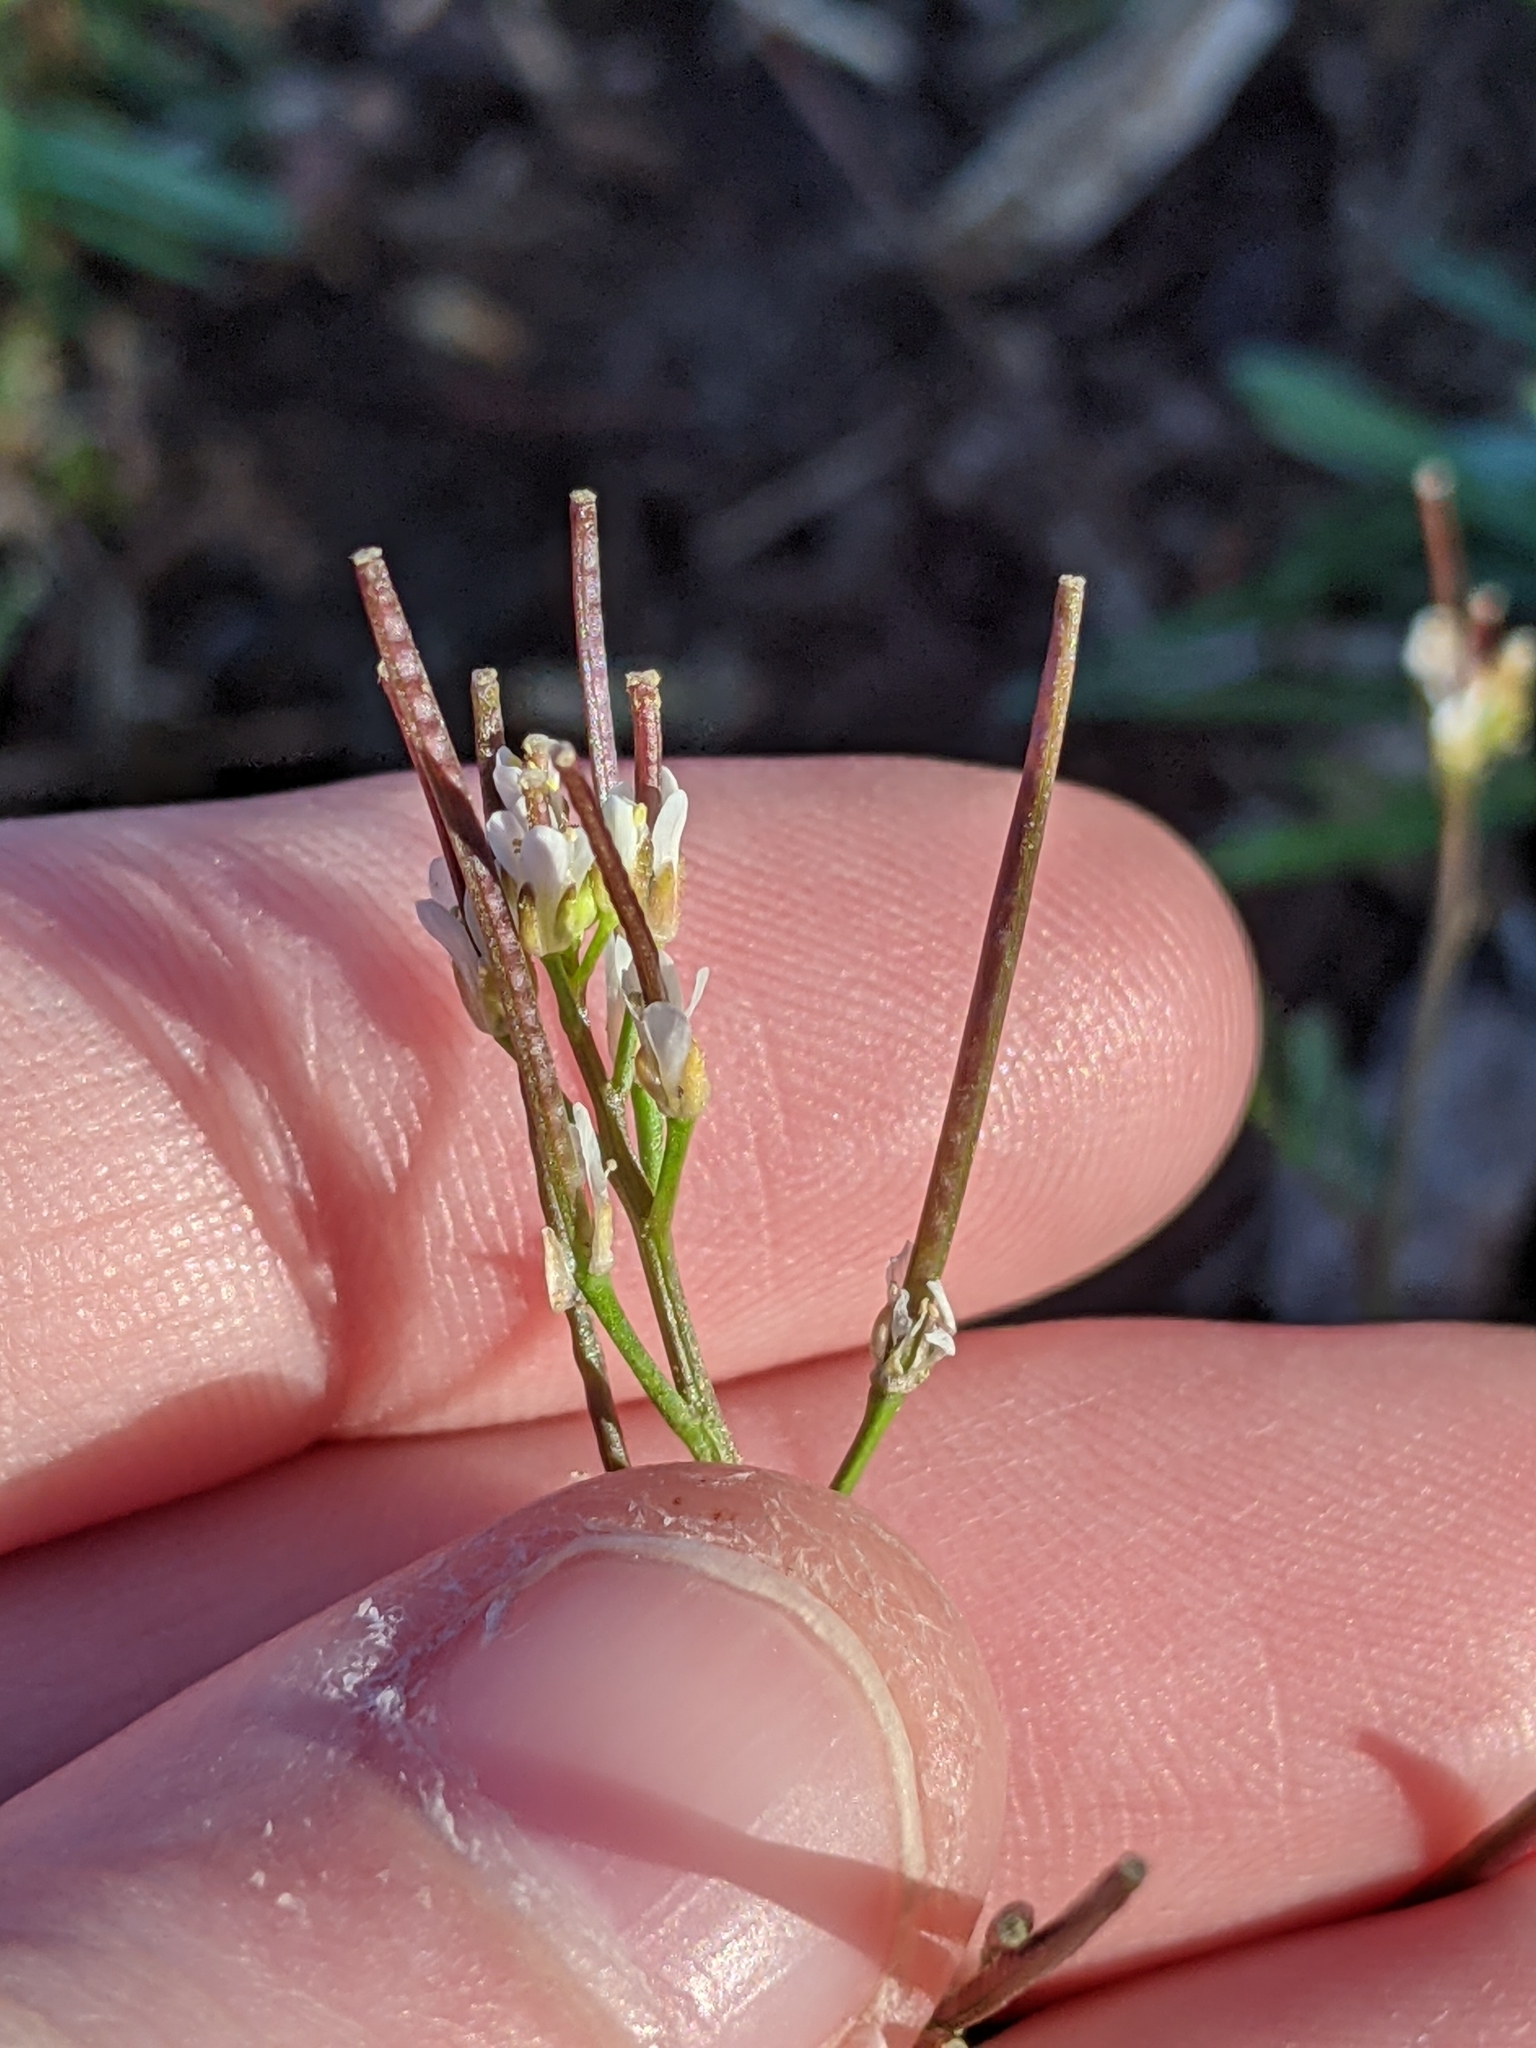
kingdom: Plantae
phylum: Tracheophyta
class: Magnoliopsida
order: Brassicales
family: Brassicaceae
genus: Cardamine
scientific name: Cardamine hirsuta
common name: Hairy bittercress
